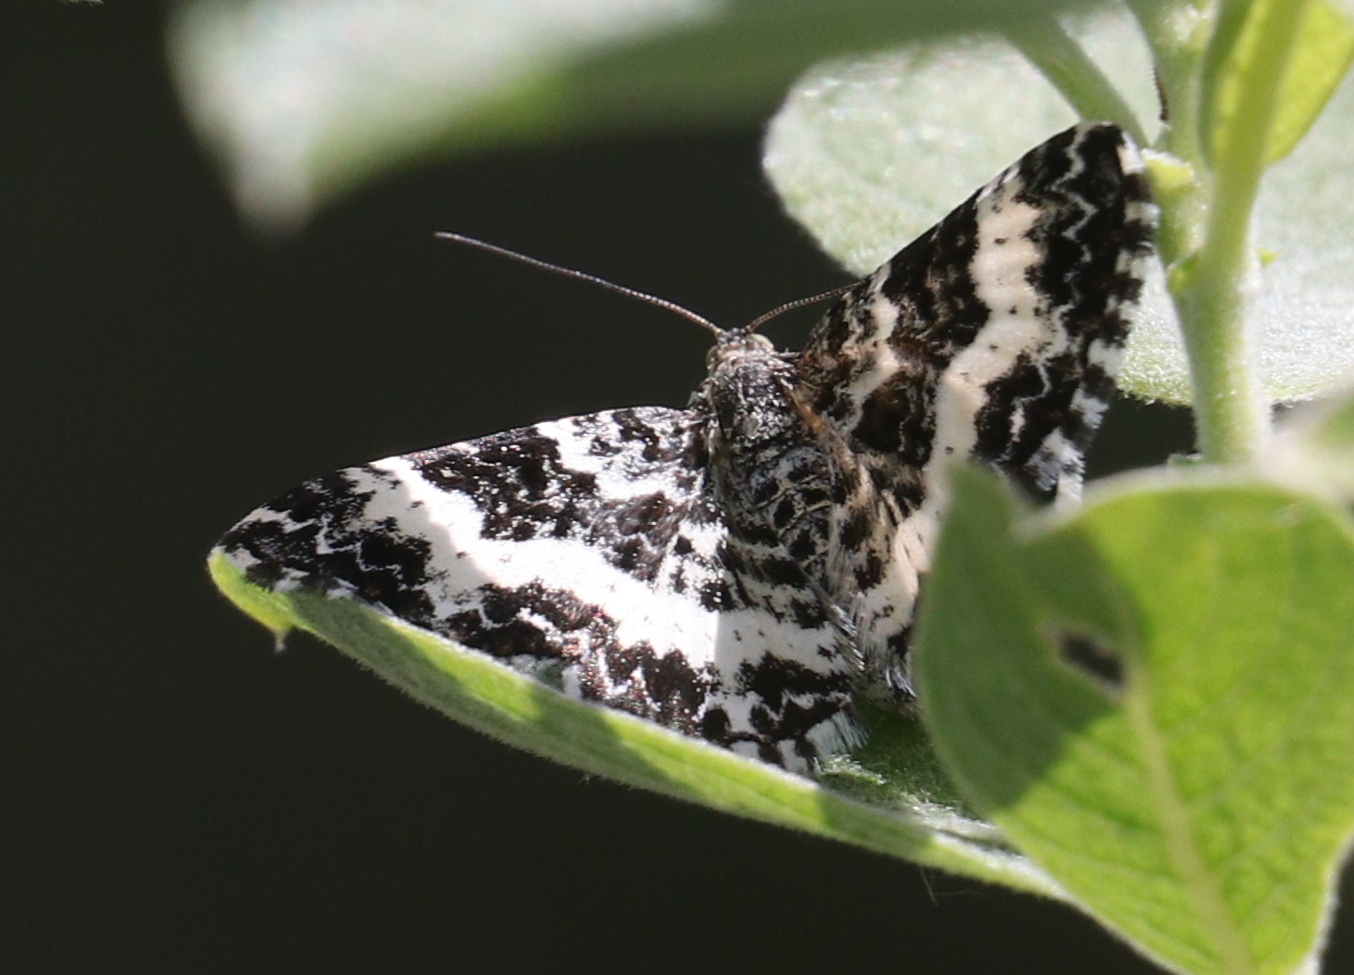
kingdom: Animalia
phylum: Arthropoda
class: Insecta
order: Lepidoptera
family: Geometridae
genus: Epirrhoe
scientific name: Epirrhoe tristata
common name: Small argent & sable
